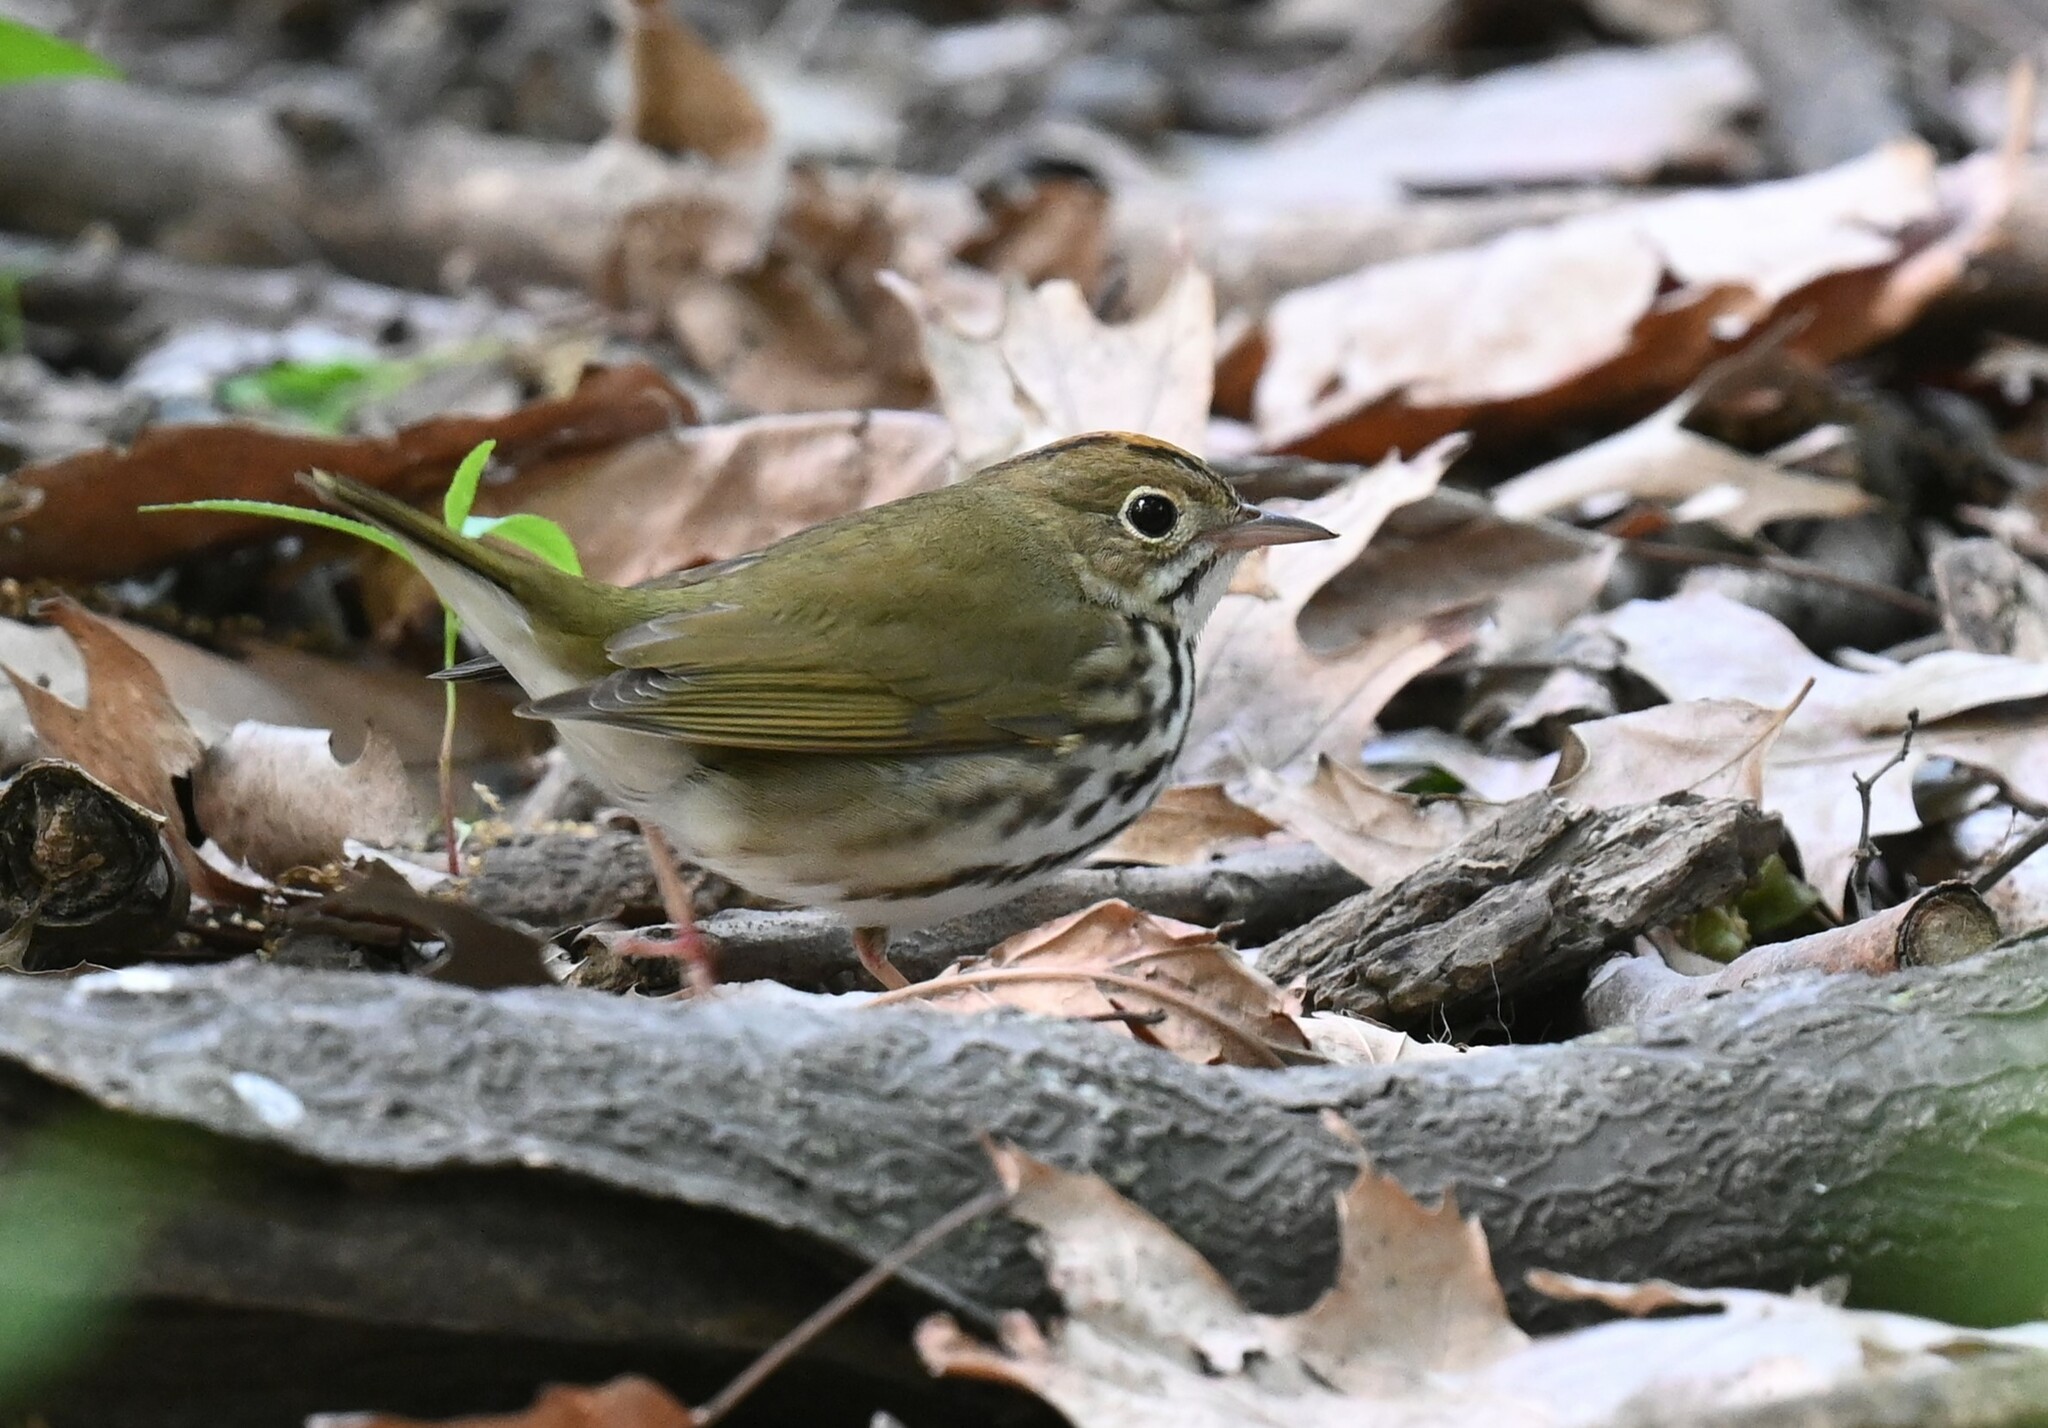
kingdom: Animalia
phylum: Chordata
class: Aves
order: Passeriformes
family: Parulidae
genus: Seiurus
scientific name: Seiurus aurocapilla
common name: Ovenbird
